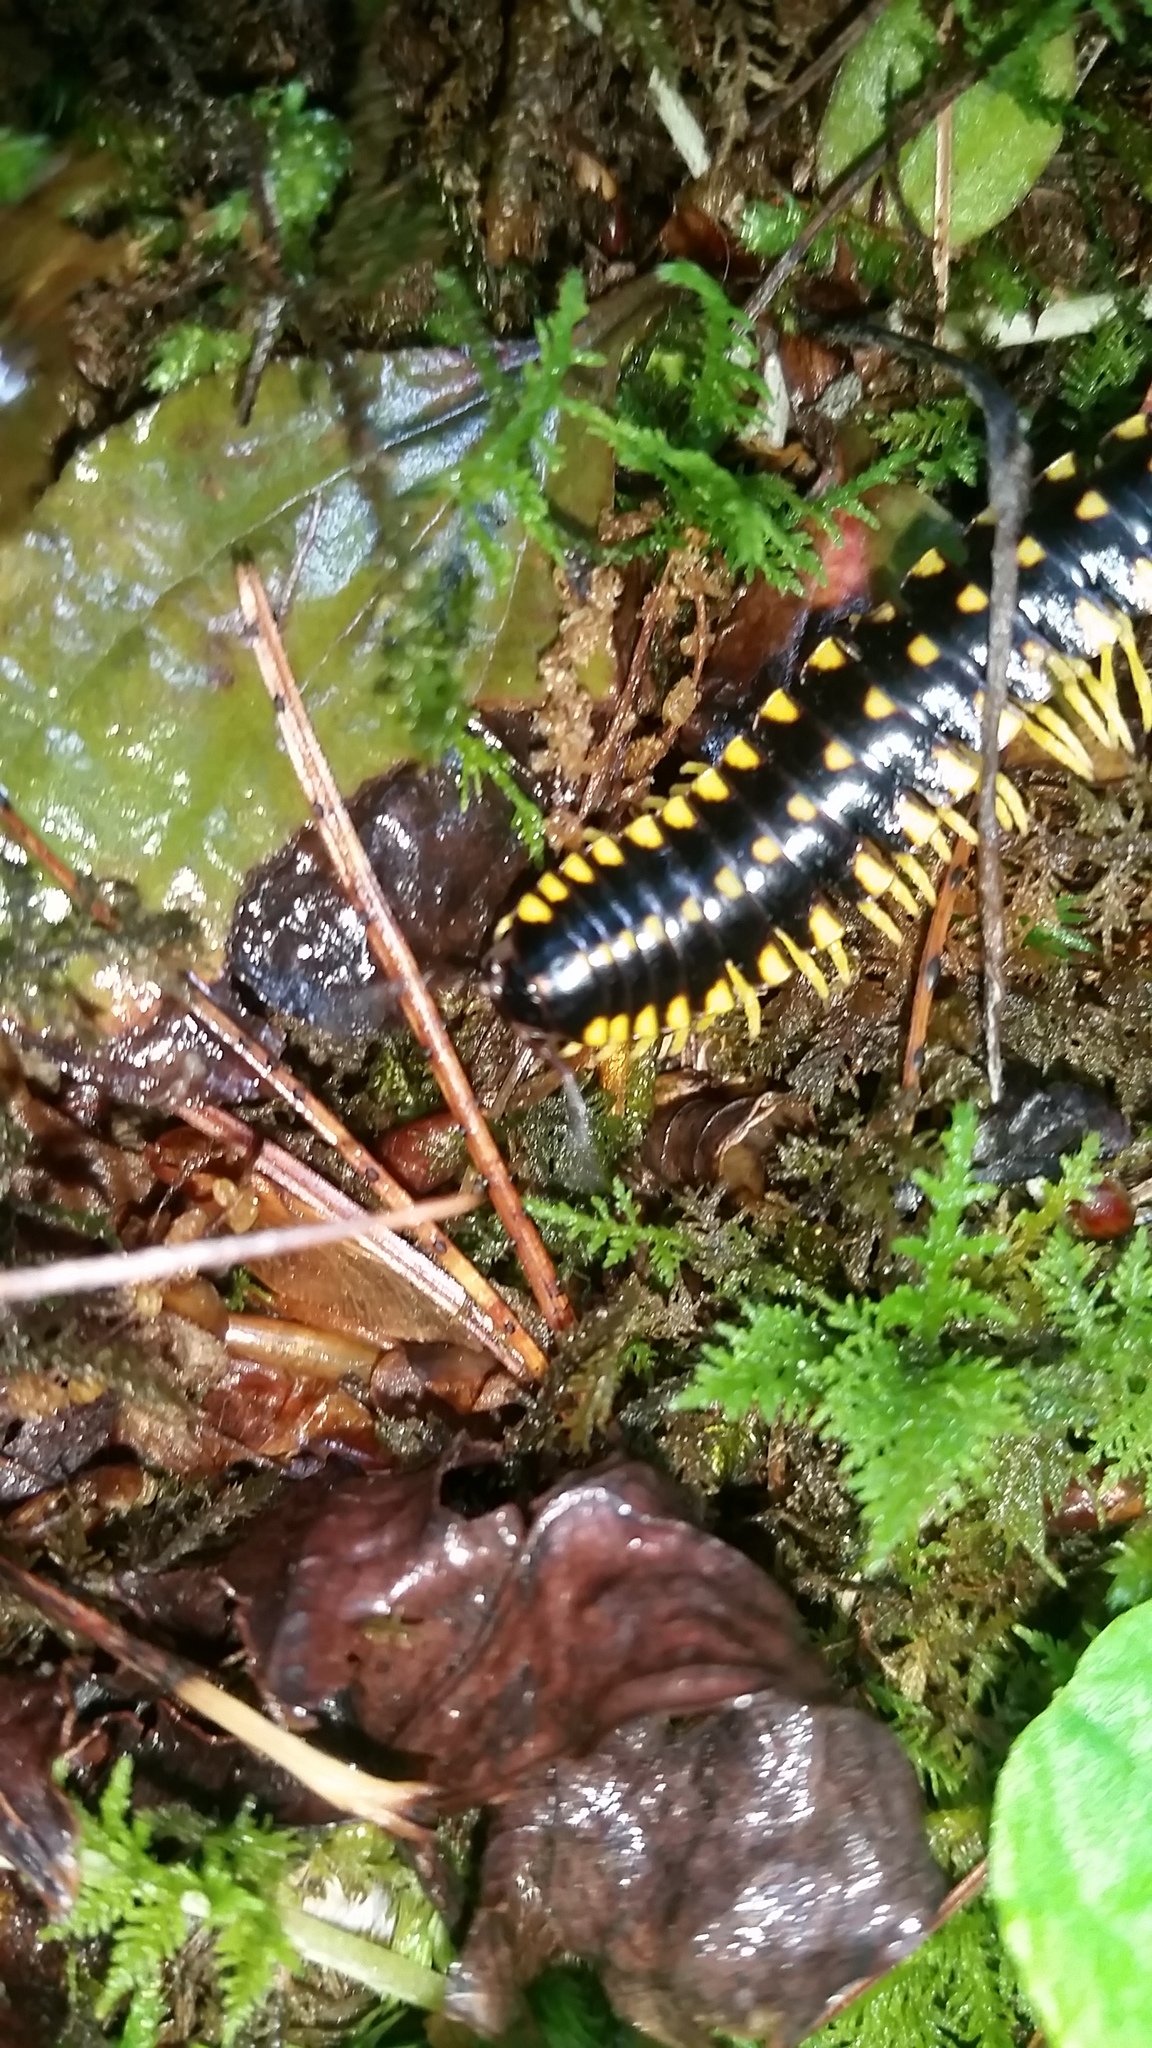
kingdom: Animalia
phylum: Arthropoda
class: Diplopoda
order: Polydesmida
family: Xystodesmidae
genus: Cherokia
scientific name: Cherokia georgiana
